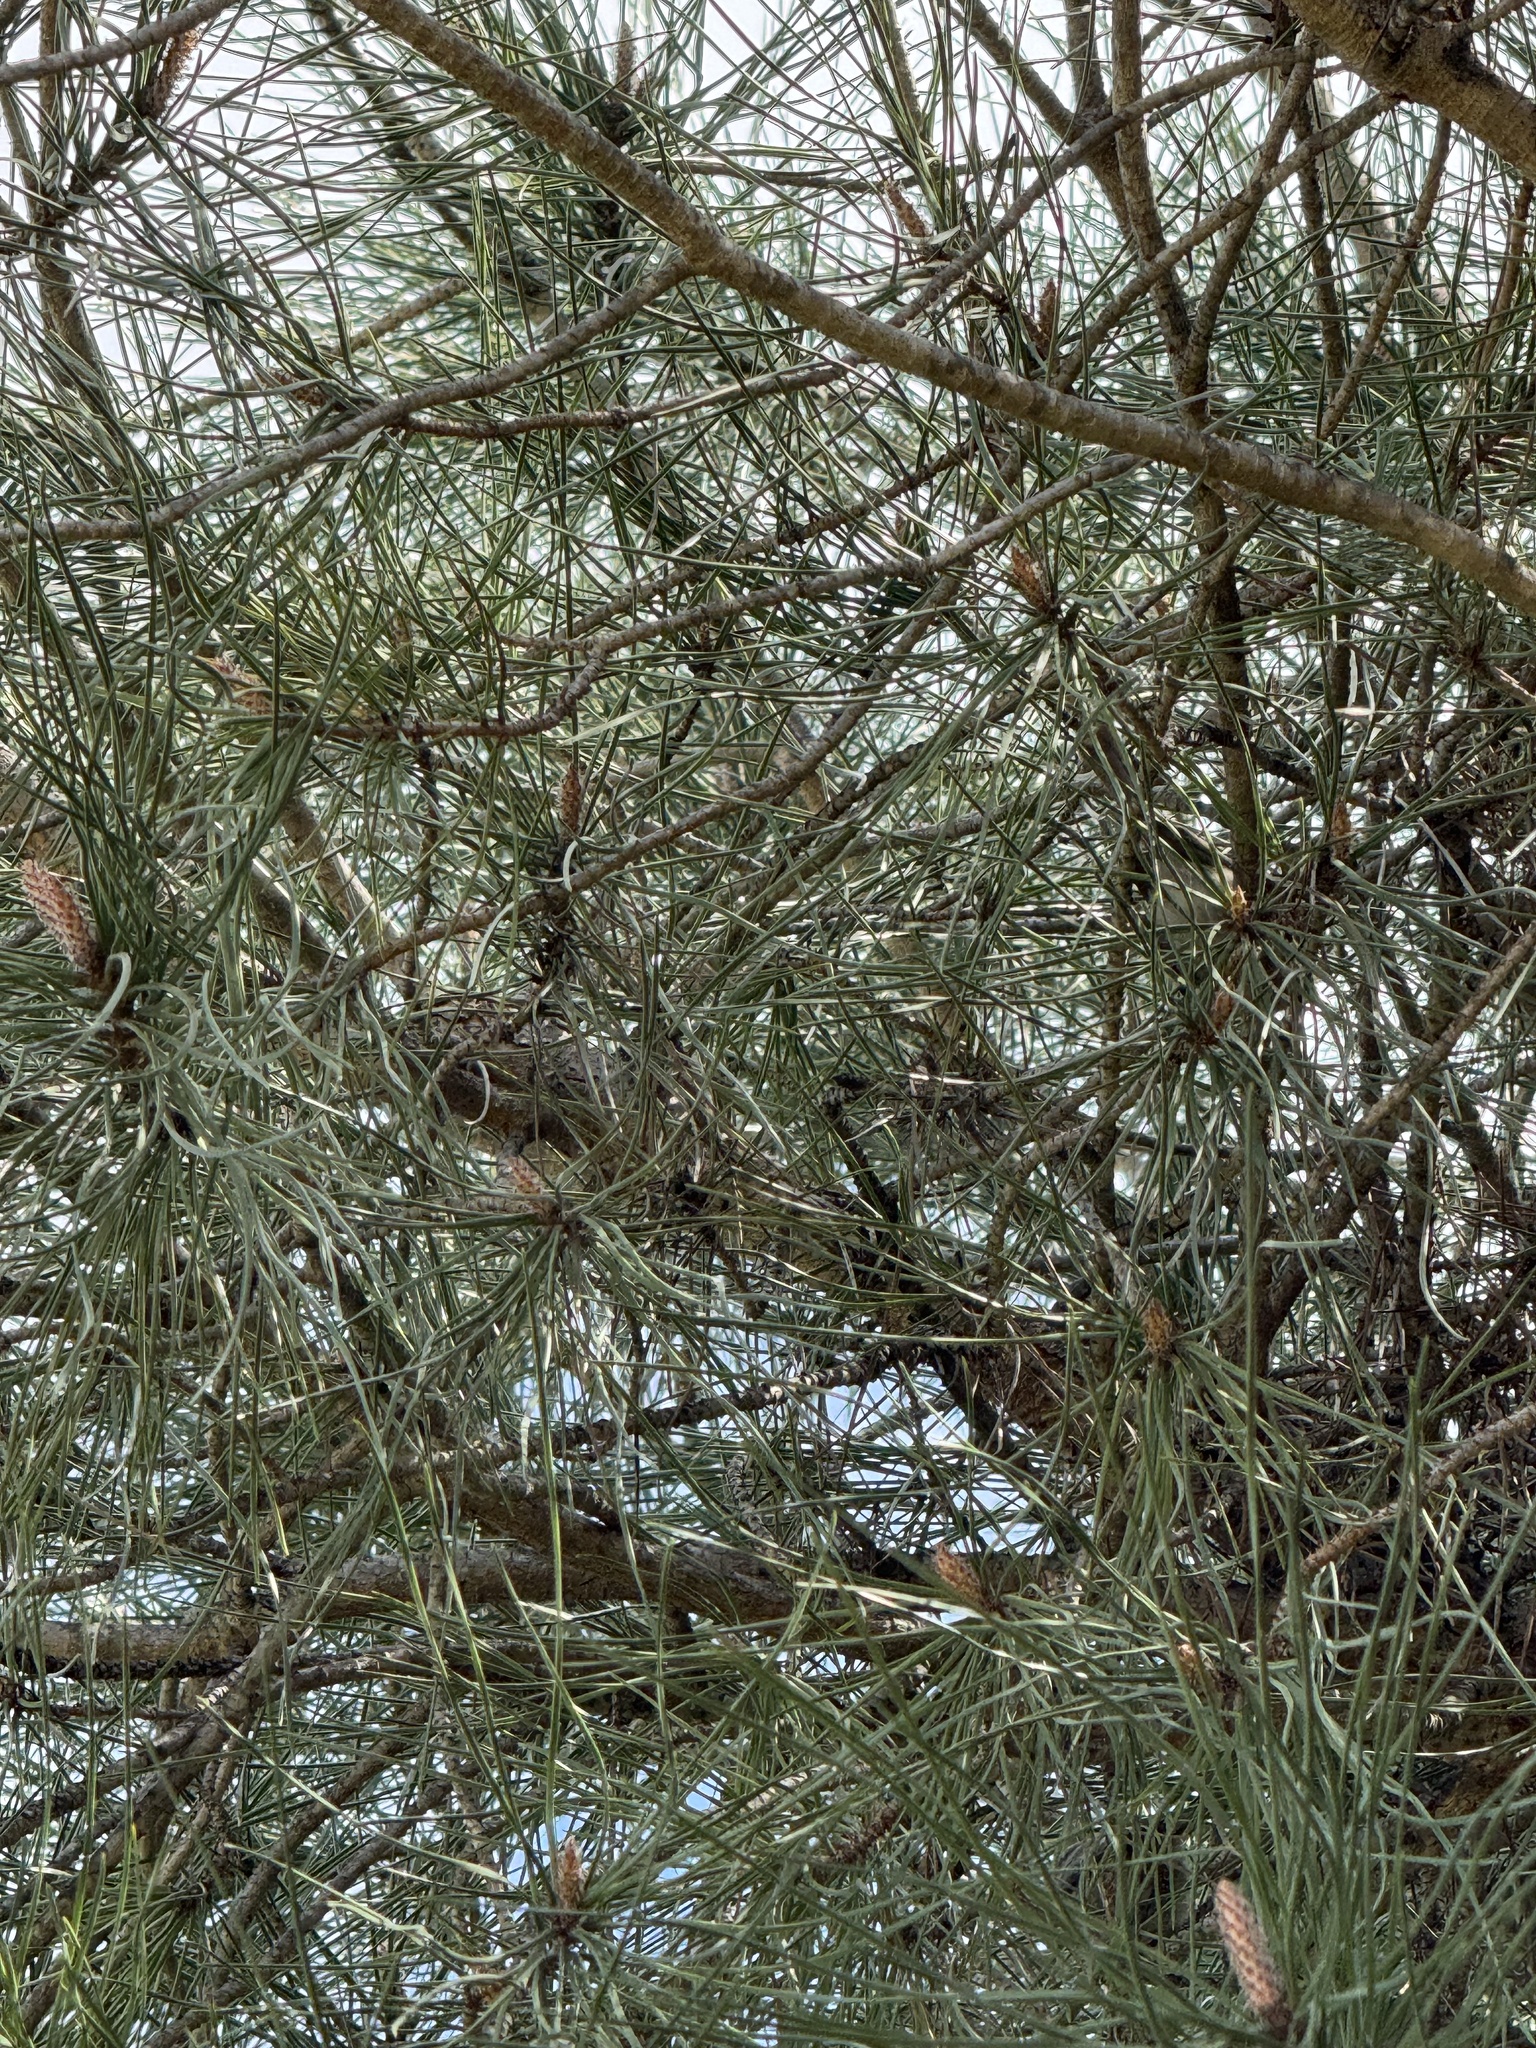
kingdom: Animalia
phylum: Chordata
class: Aves
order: Passeriformes
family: Aegithalidae
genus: Psaltriparus
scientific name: Psaltriparus minimus
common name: American bushtit
